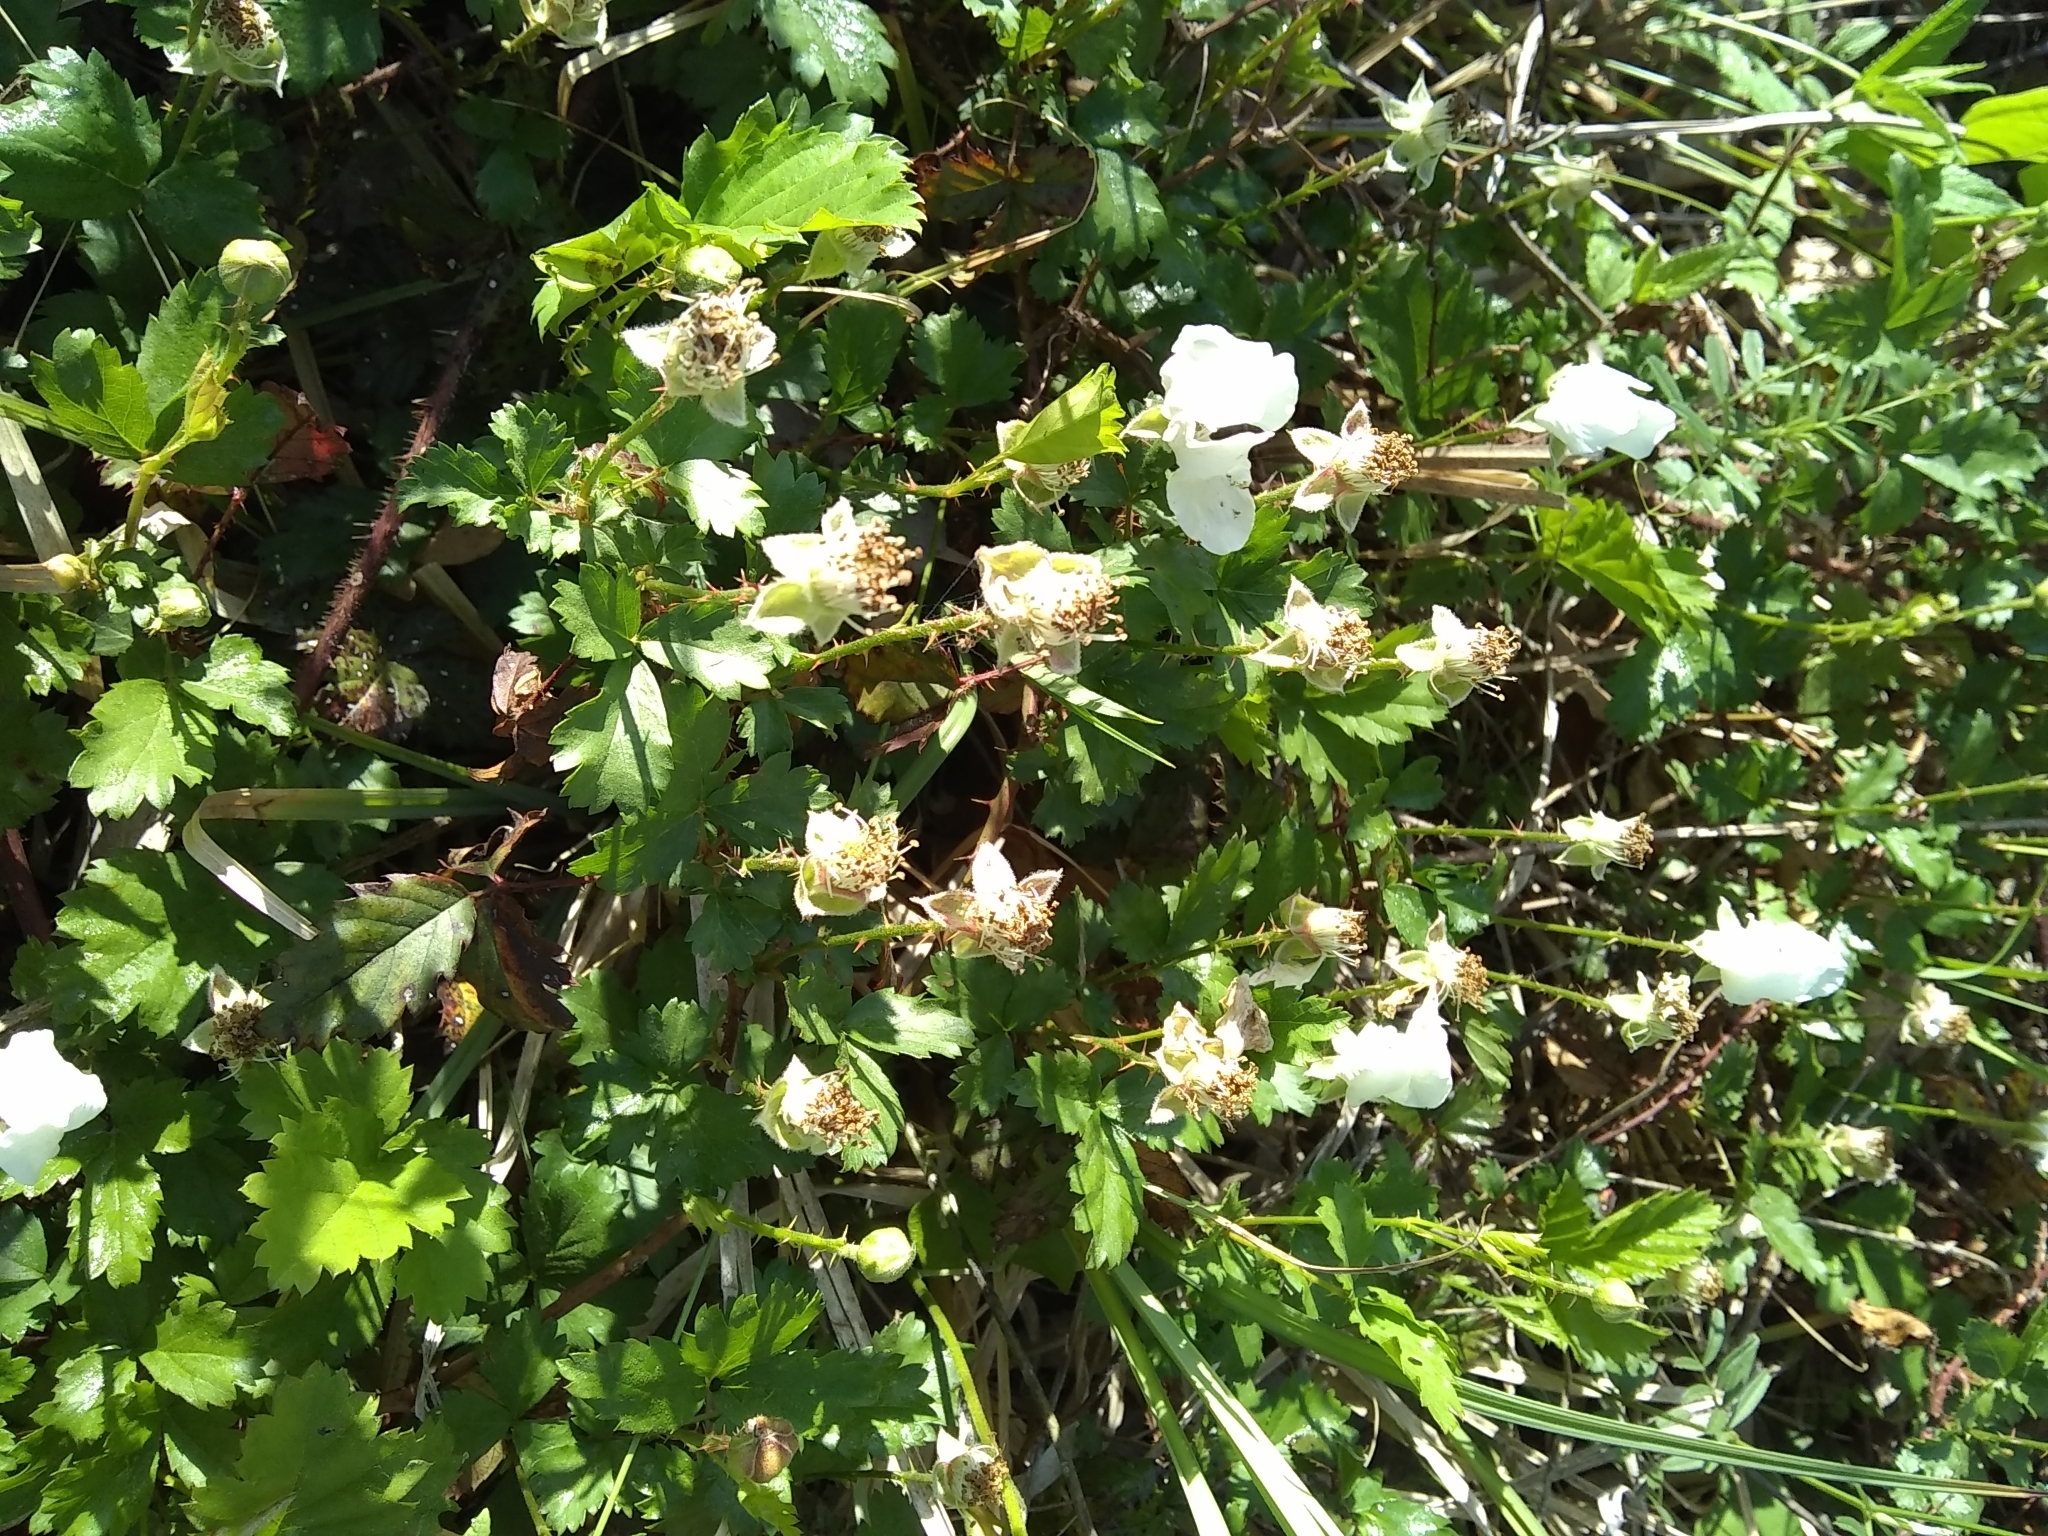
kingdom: Plantae
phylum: Tracheophyta
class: Magnoliopsida
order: Rosales
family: Rosaceae
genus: Rubus
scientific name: Rubus trivialis
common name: Southern dewberry
